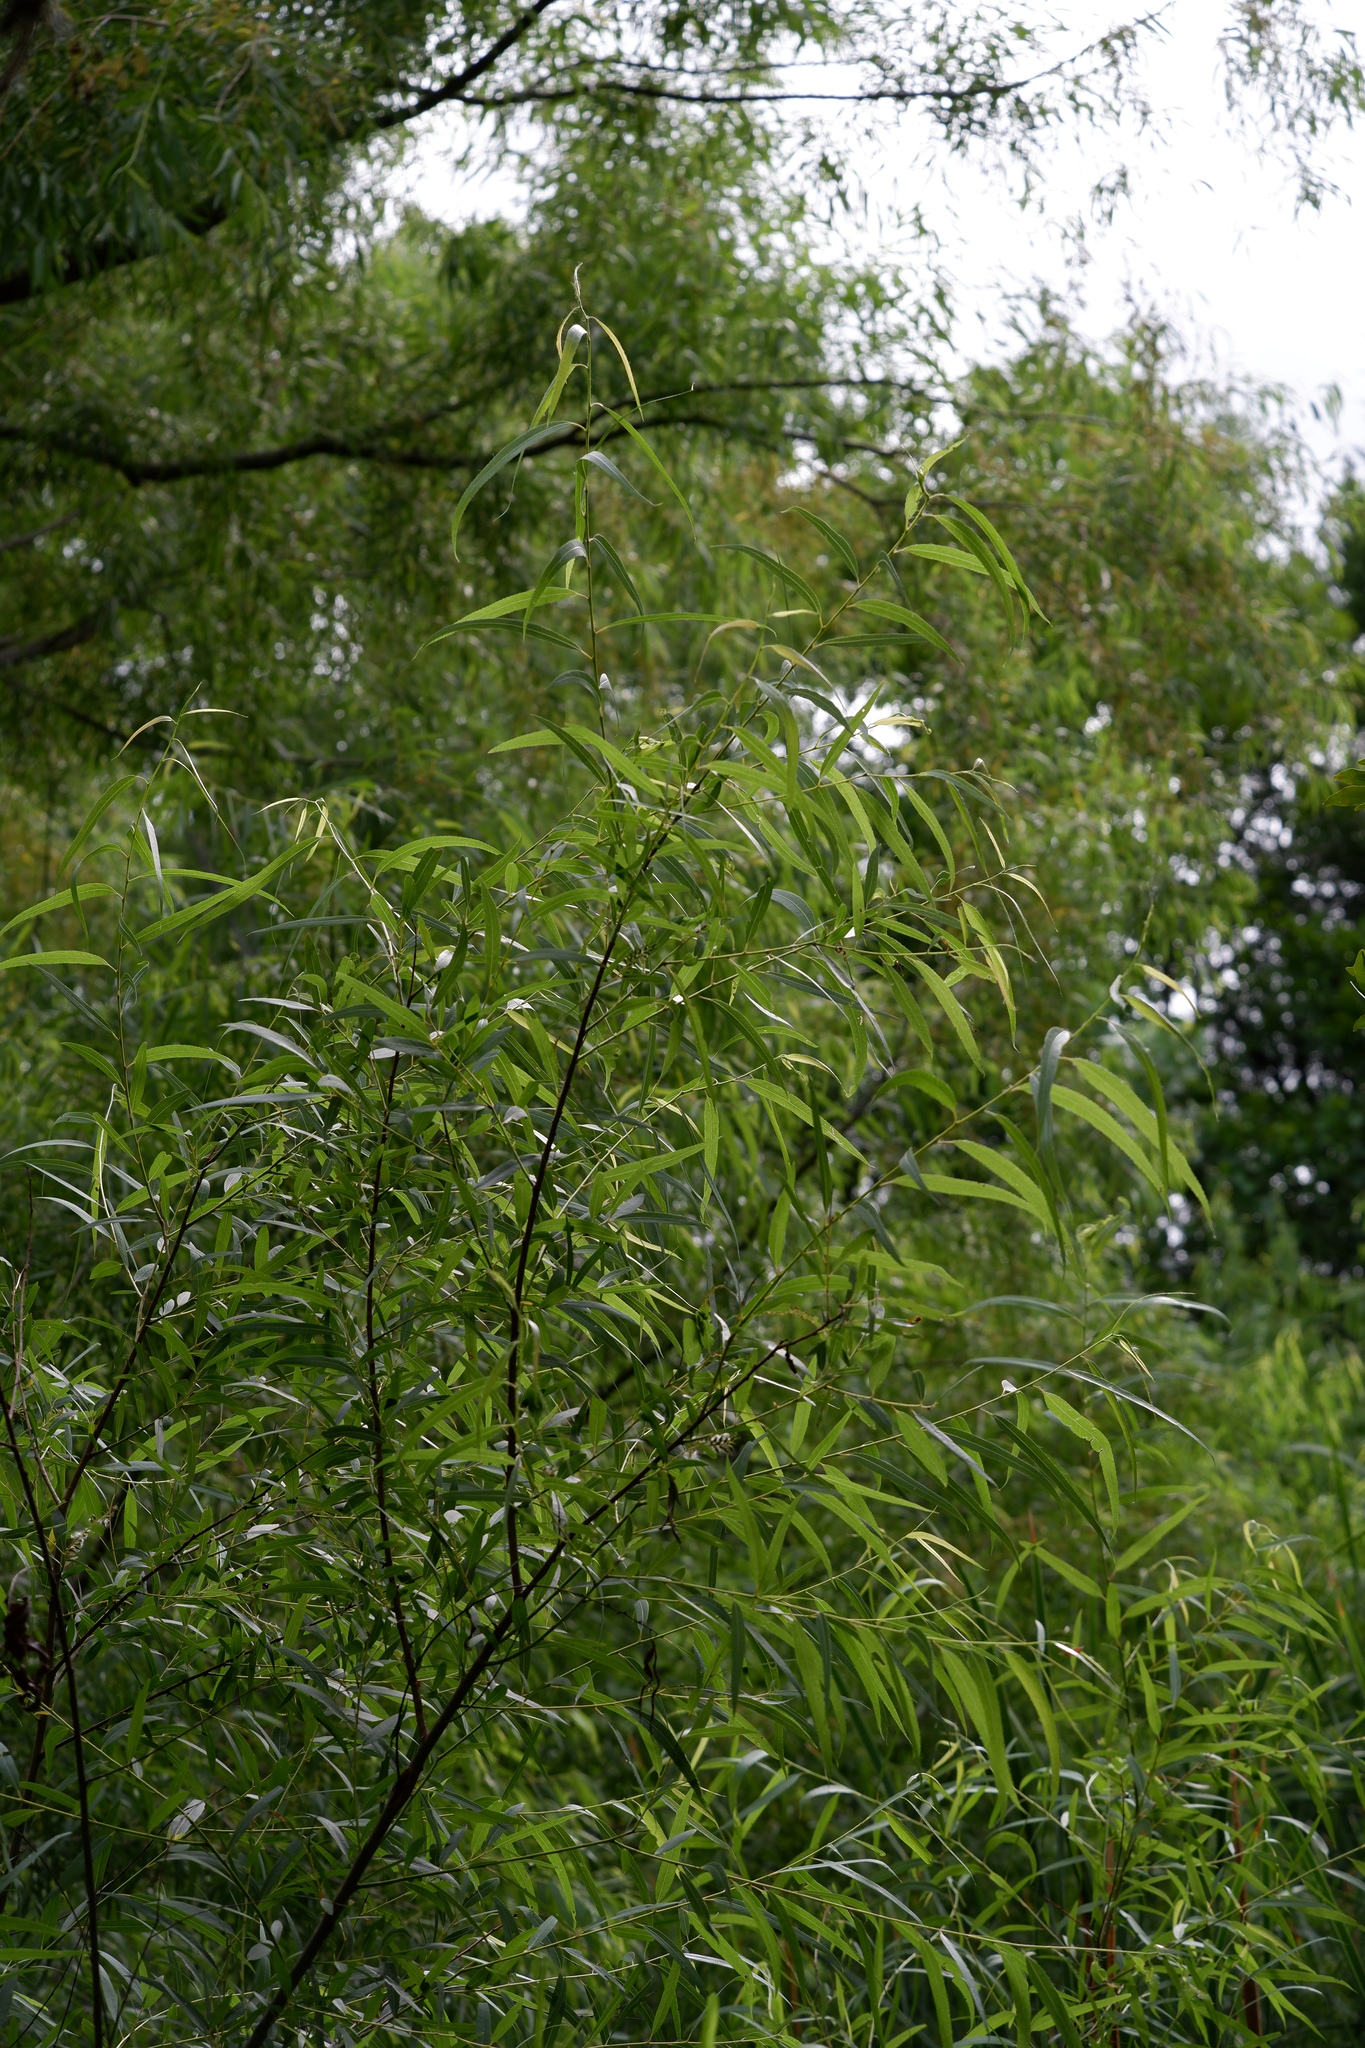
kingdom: Plantae
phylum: Tracheophyta
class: Magnoliopsida
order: Malpighiales
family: Salicaceae
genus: Salix
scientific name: Salix nigra
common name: Black willow
